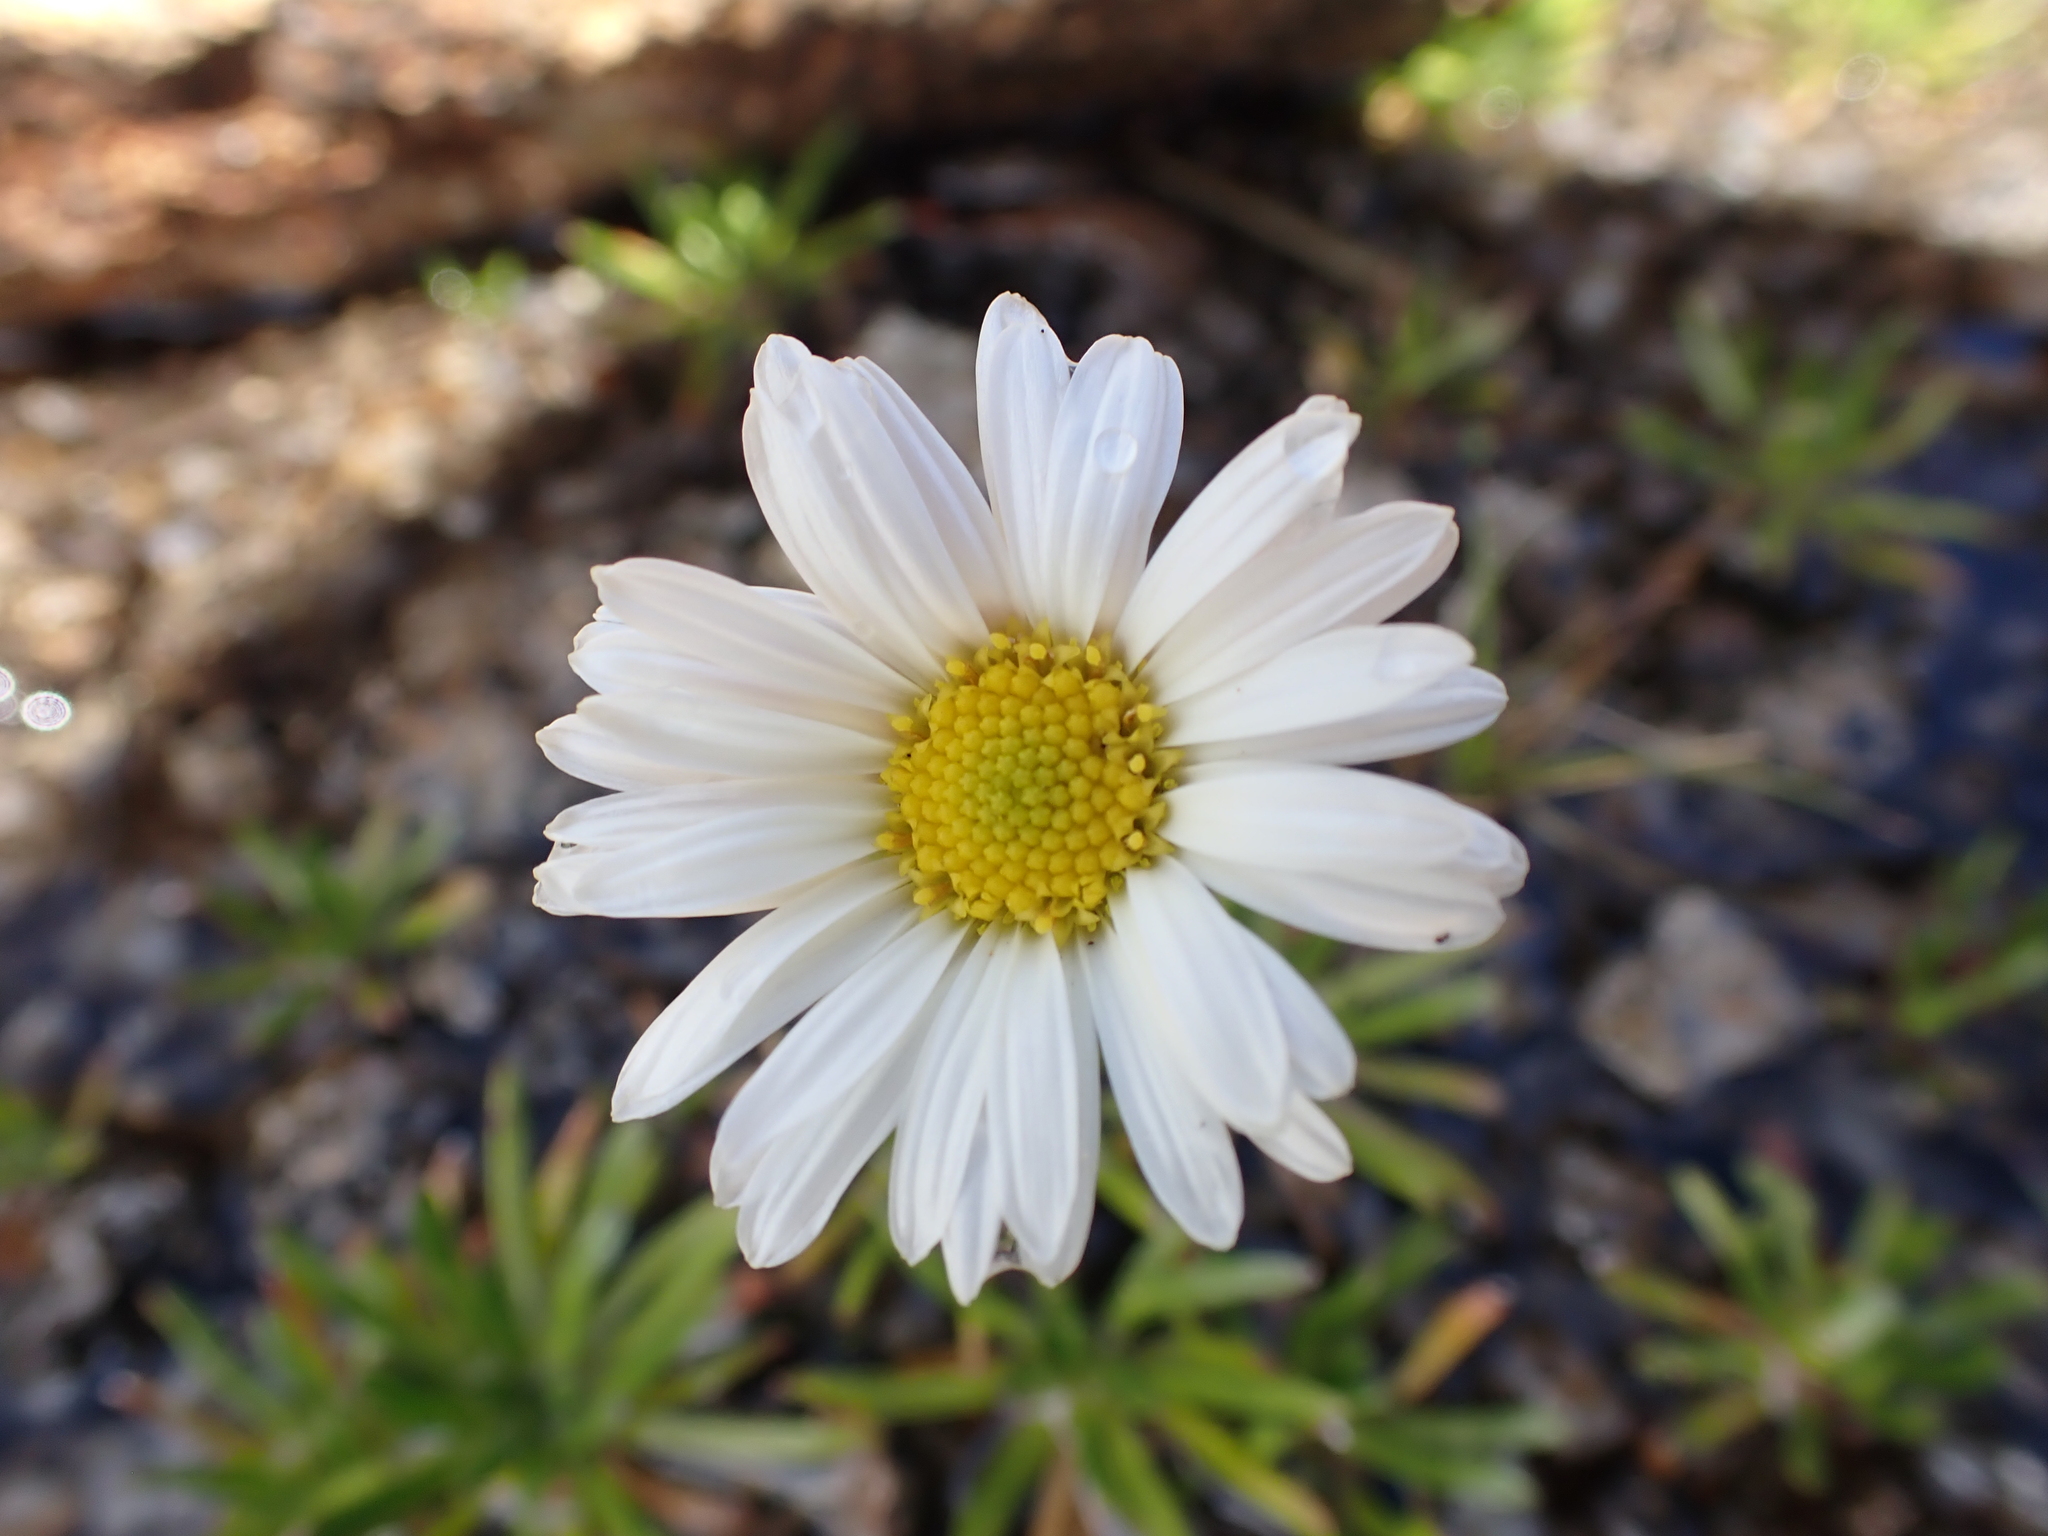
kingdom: Plantae
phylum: Tracheophyta
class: Magnoliopsida
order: Asterales
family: Asteraceae
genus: Brachyscome
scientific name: Brachyscome stolonifera
